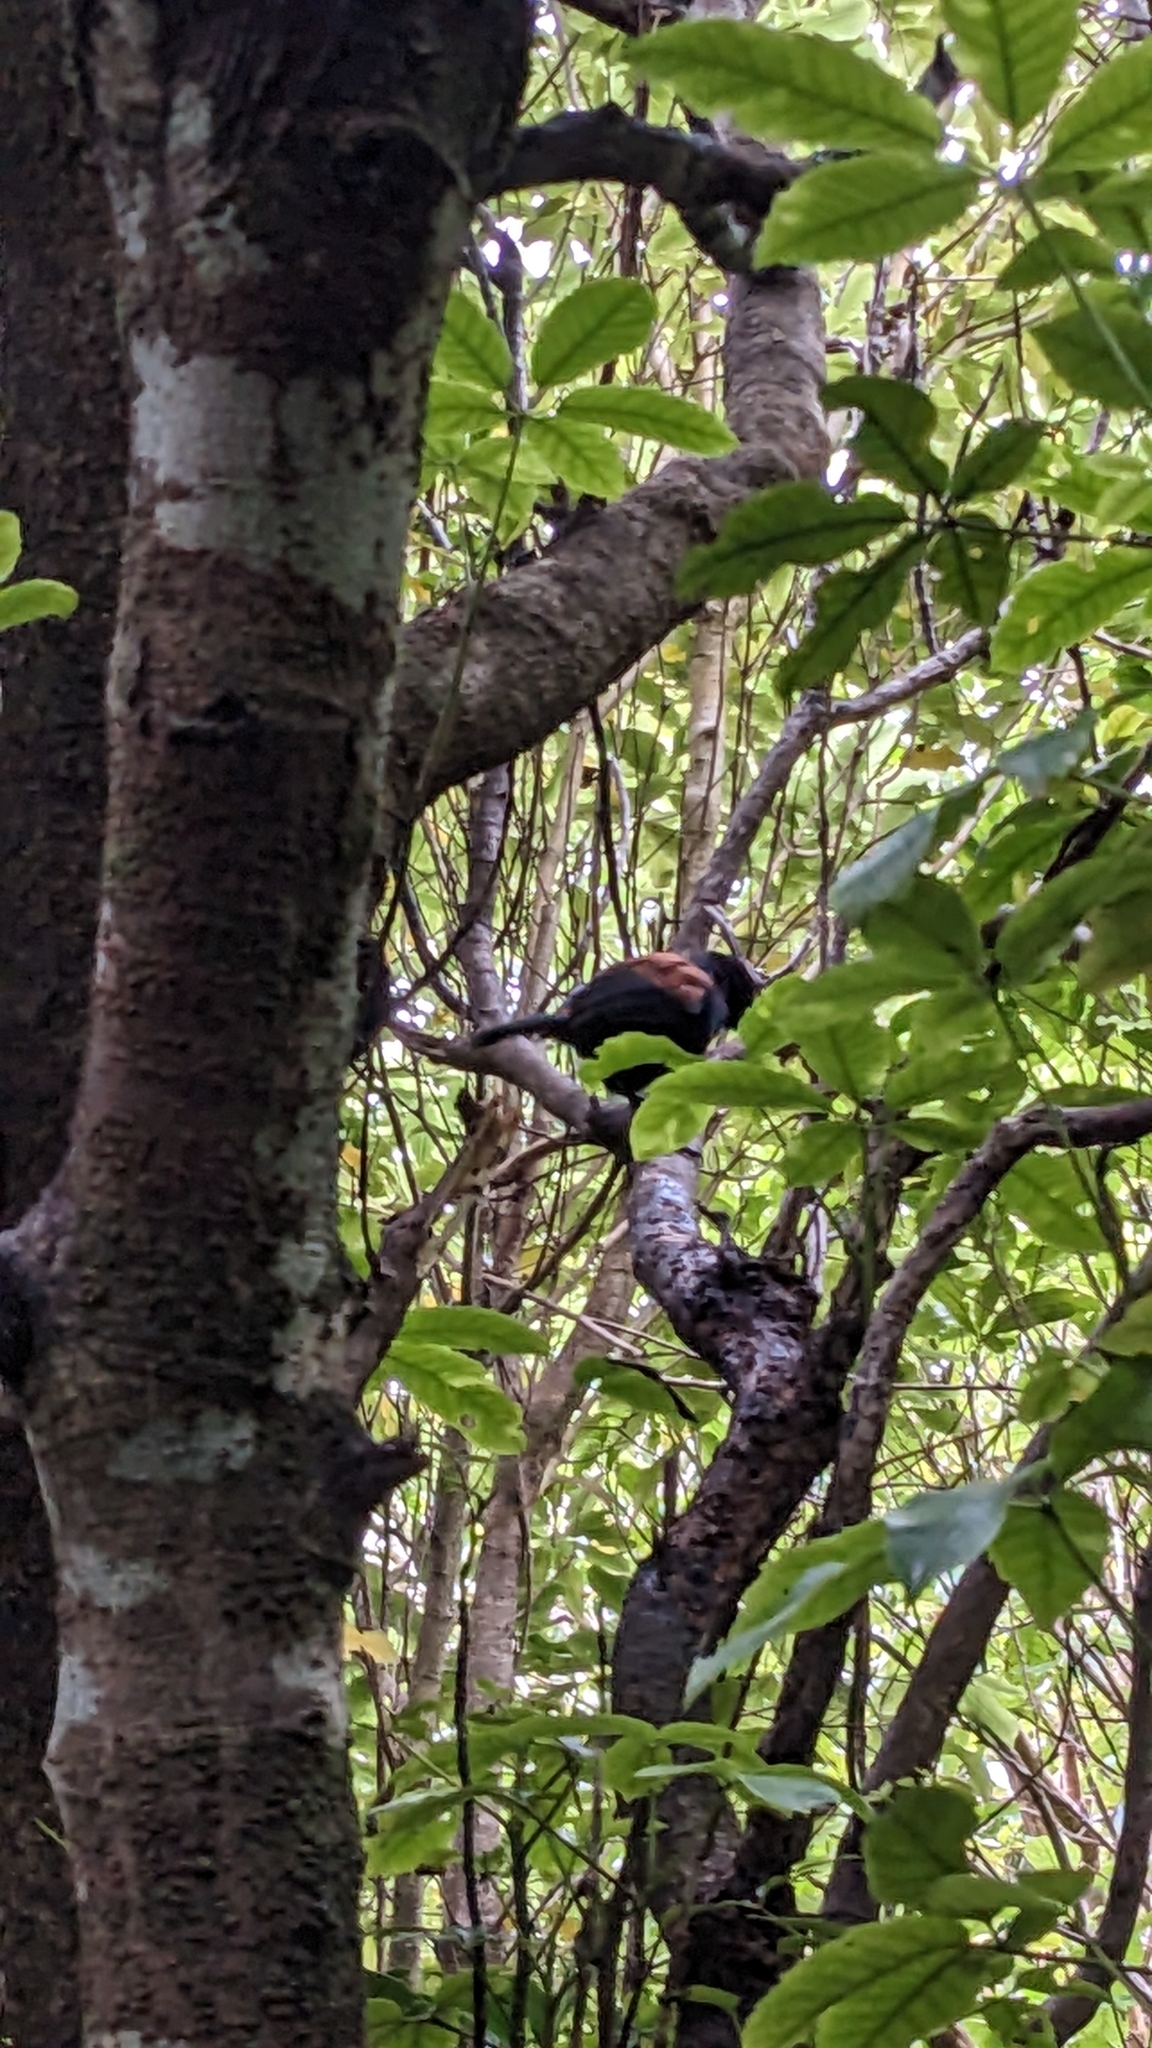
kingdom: Animalia
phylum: Chordata
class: Aves
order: Passeriformes
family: Callaeatidae
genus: Philesturnus
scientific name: Philesturnus carunculatus
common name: South island saddleback
